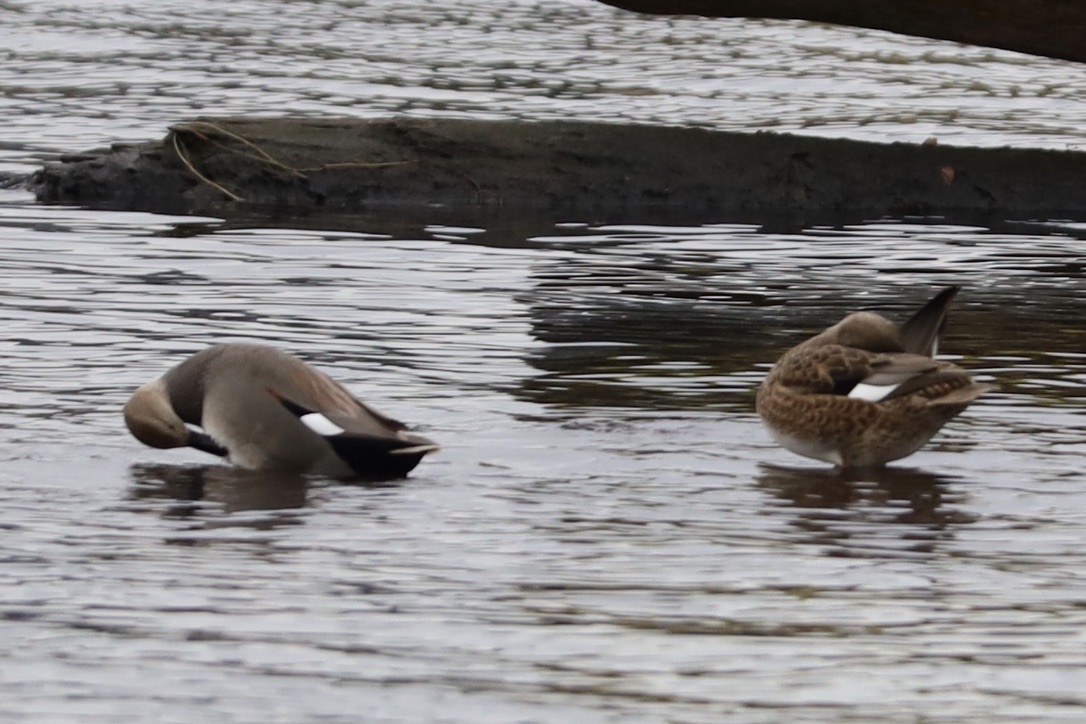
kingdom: Animalia
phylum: Chordata
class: Aves
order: Anseriformes
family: Anatidae
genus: Mareca
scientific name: Mareca strepera
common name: Gadwall
